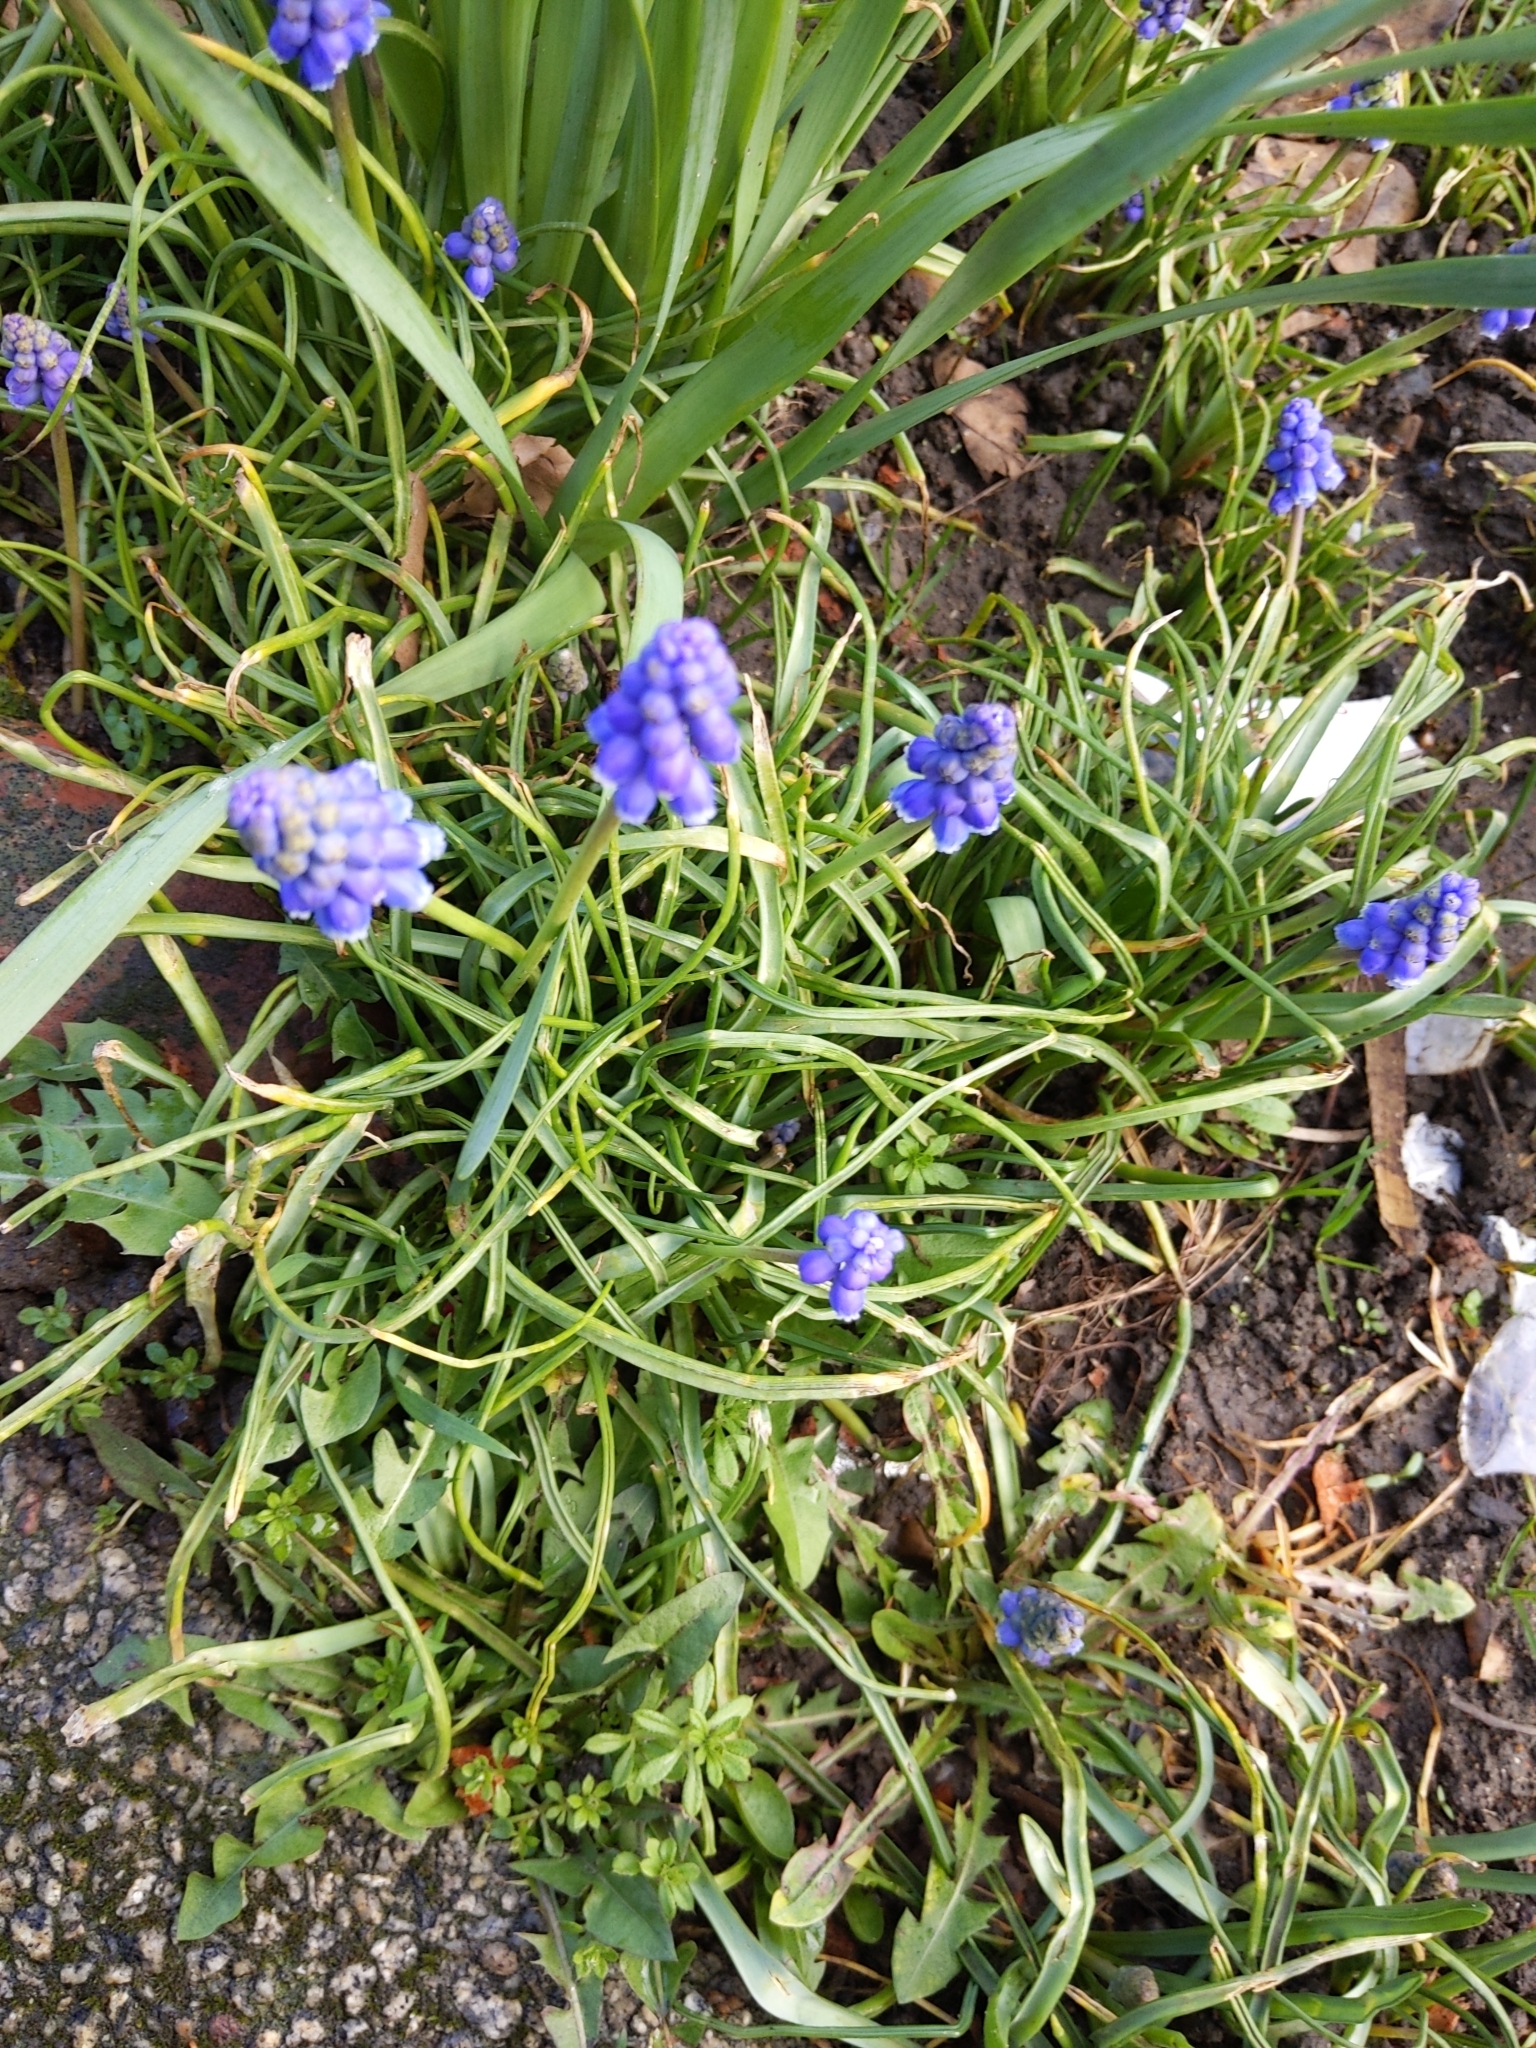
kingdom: Plantae
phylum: Tracheophyta
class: Liliopsida
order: Asparagales
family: Asparagaceae
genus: Muscari
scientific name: Muscari armeniacum
